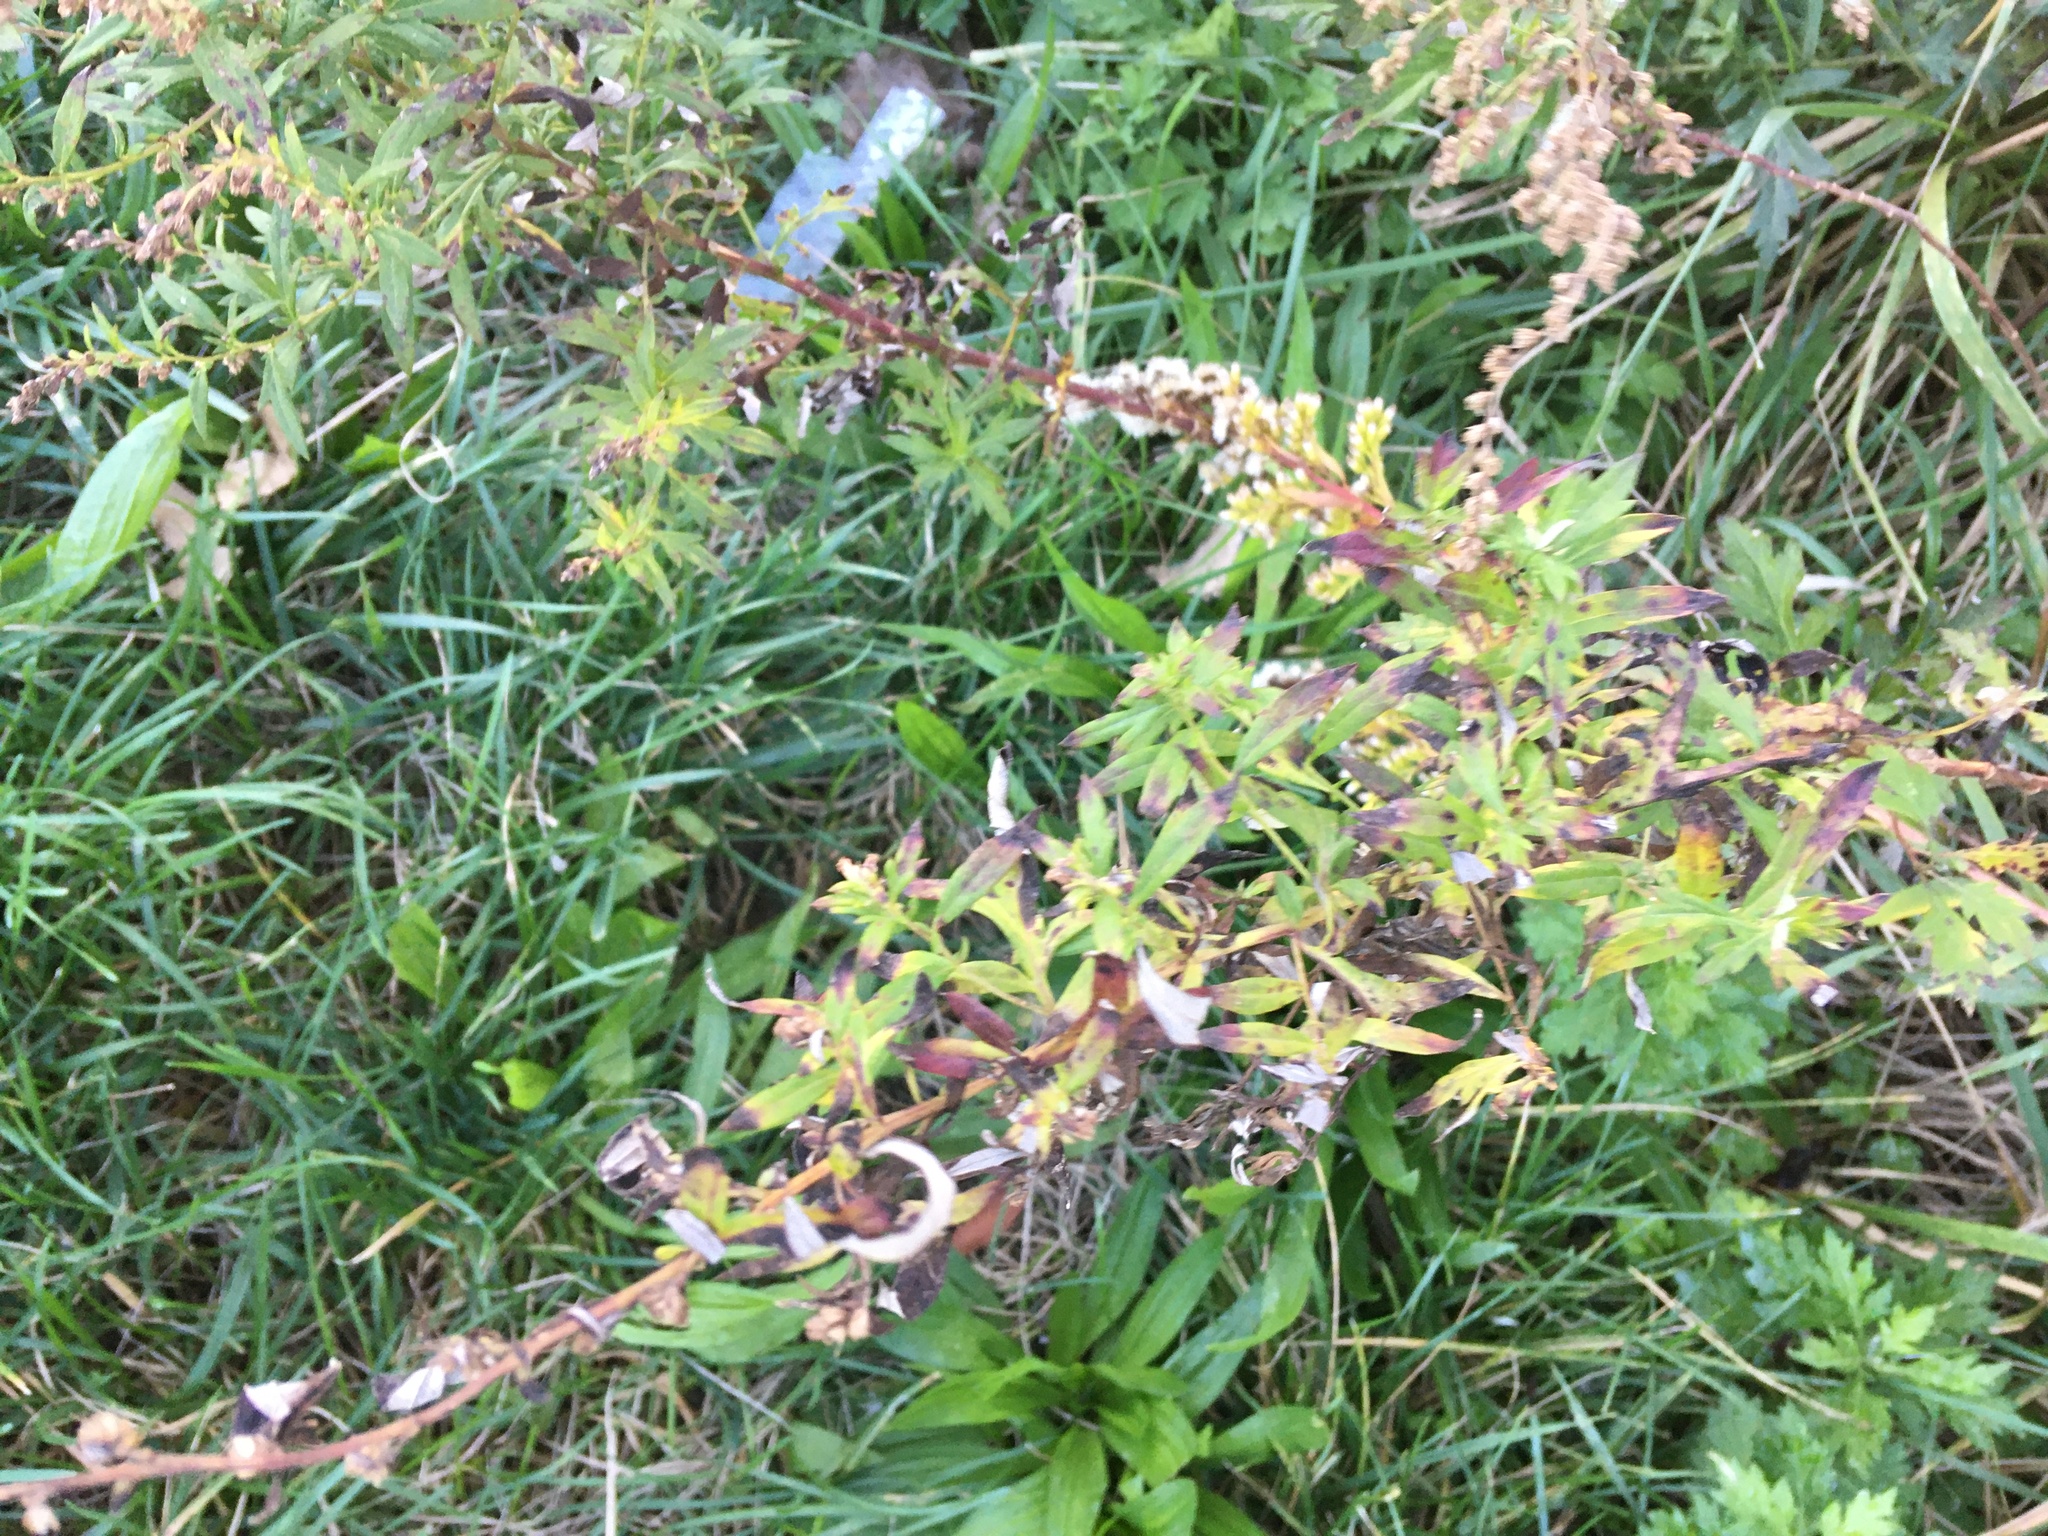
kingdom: Plantae
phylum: Tracheophyta
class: Magnoliopsida
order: Asterales
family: Asteraceae
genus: Artemisia
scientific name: Artemisia vulgaris
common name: Mugwort
